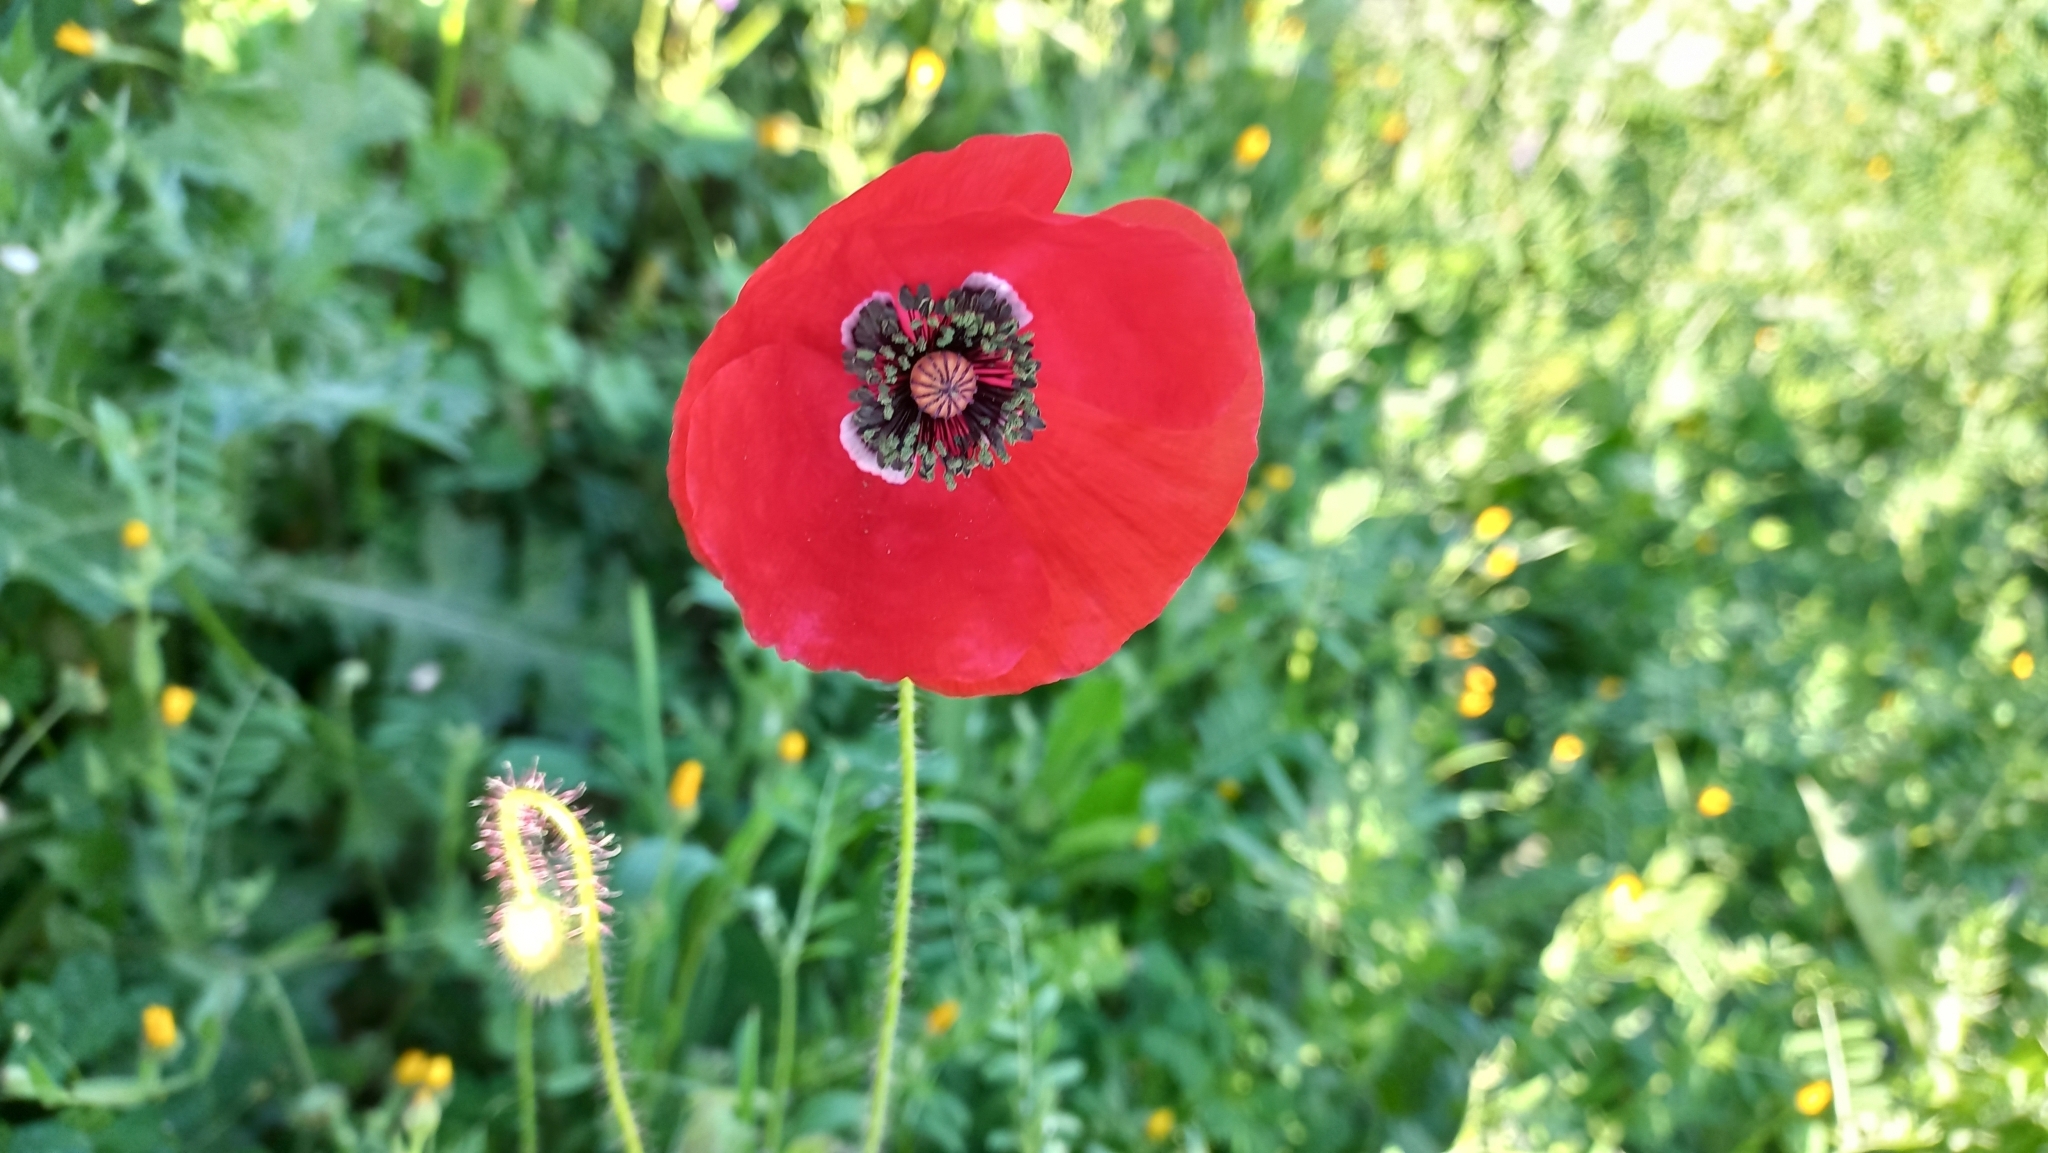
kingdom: Plantae
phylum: Tracheophyta
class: Magnoliopsida
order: Ranunculales
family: Papaveraceae
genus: Papaver
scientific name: Papaver rhoeas
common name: Corn poppy
